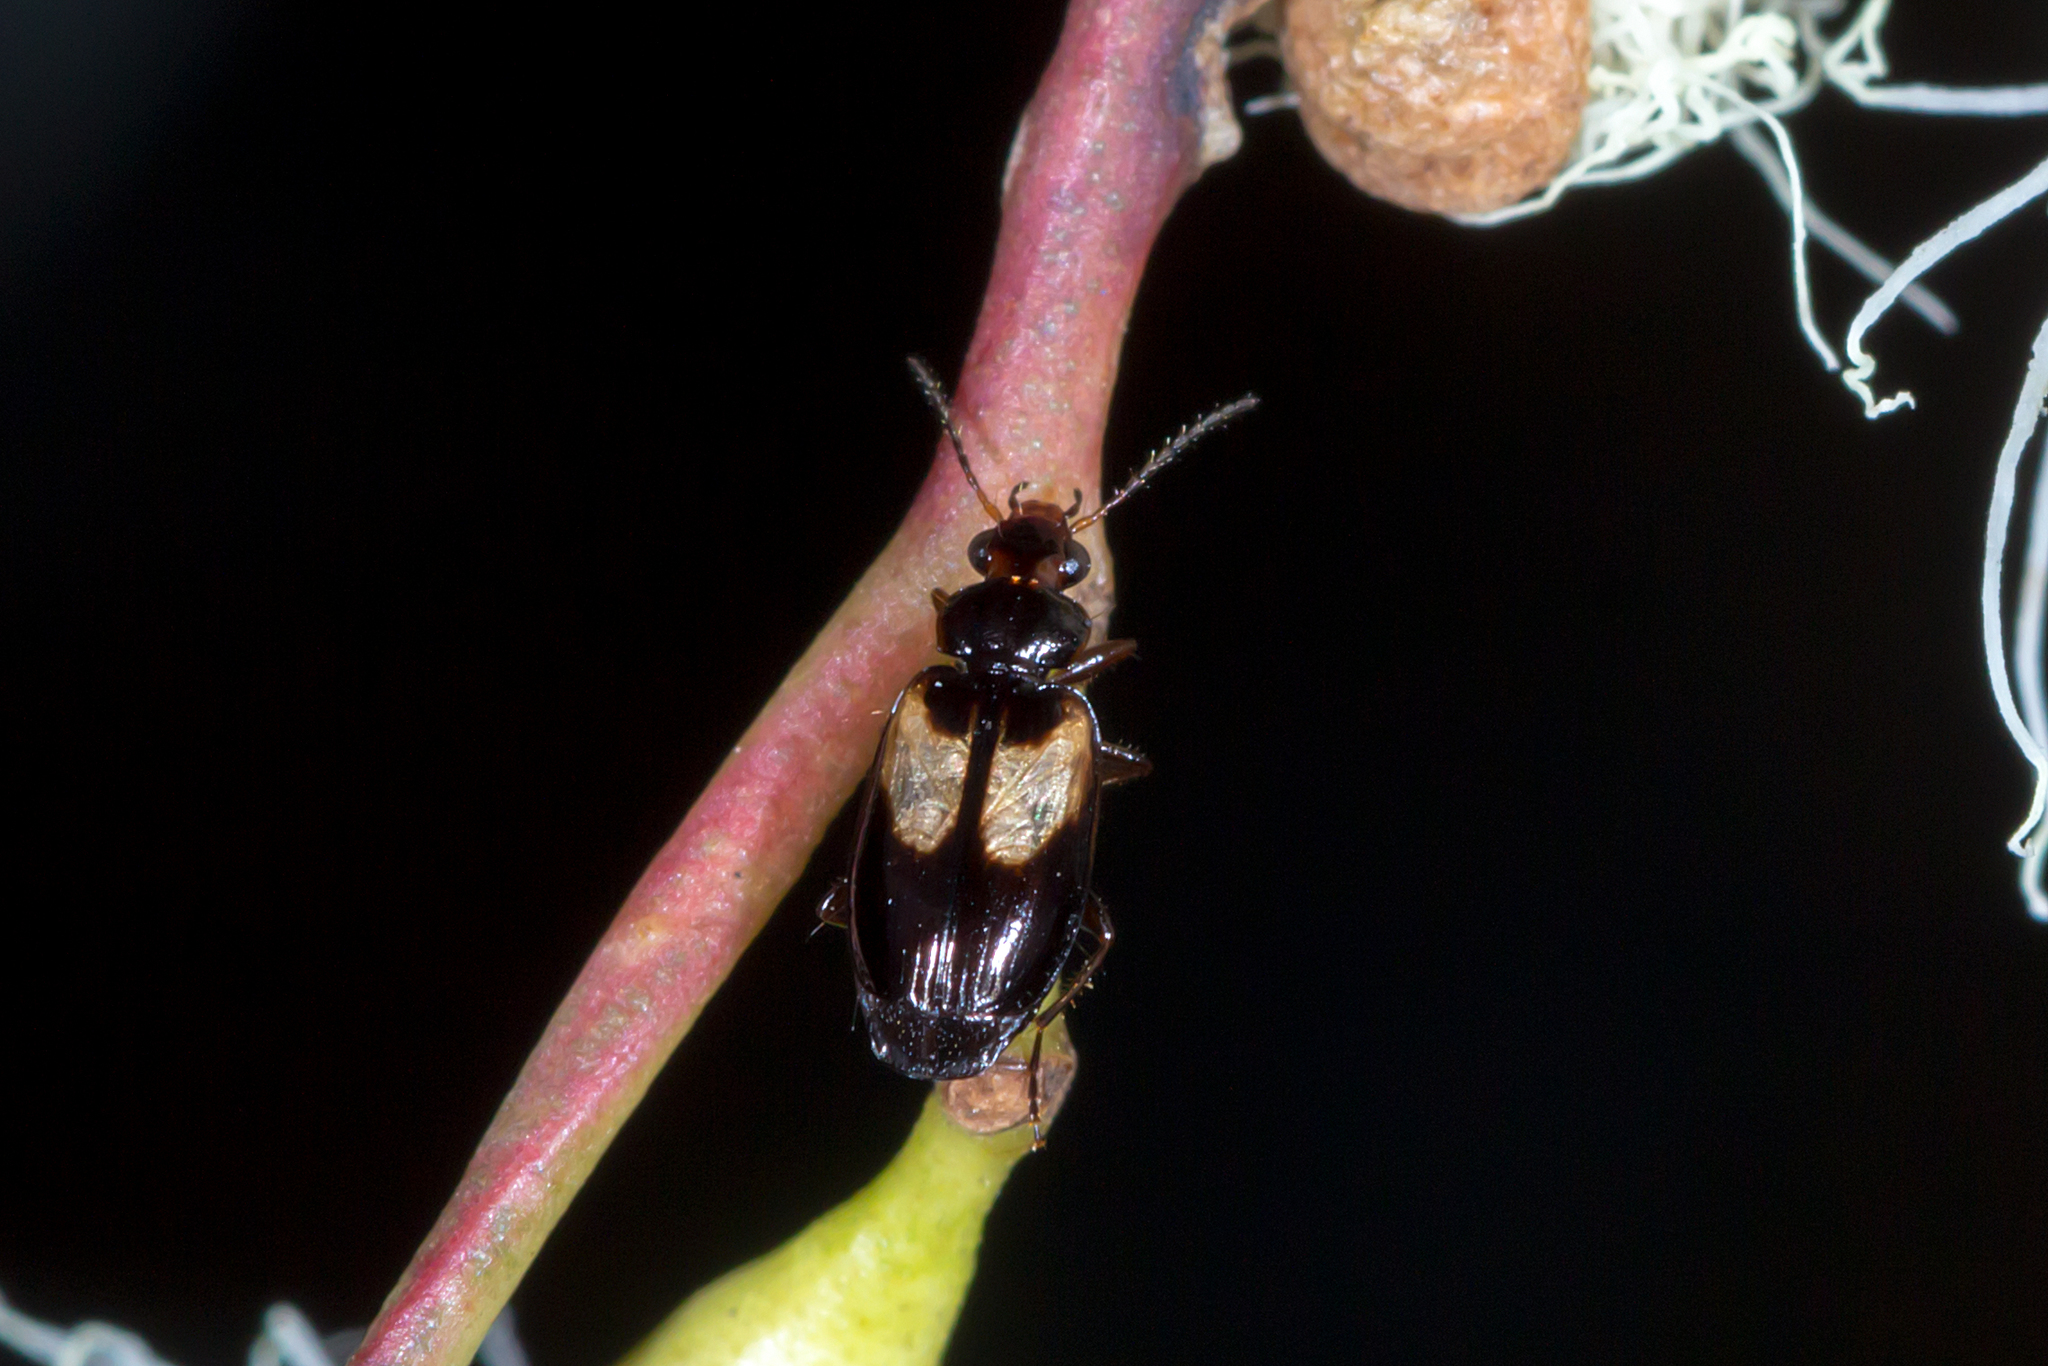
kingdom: Animalia
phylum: Arthropoda
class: Insecta
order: Coleoptera
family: Carabidae
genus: Sarothrocrepis
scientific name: Sarothrocrepis civica
